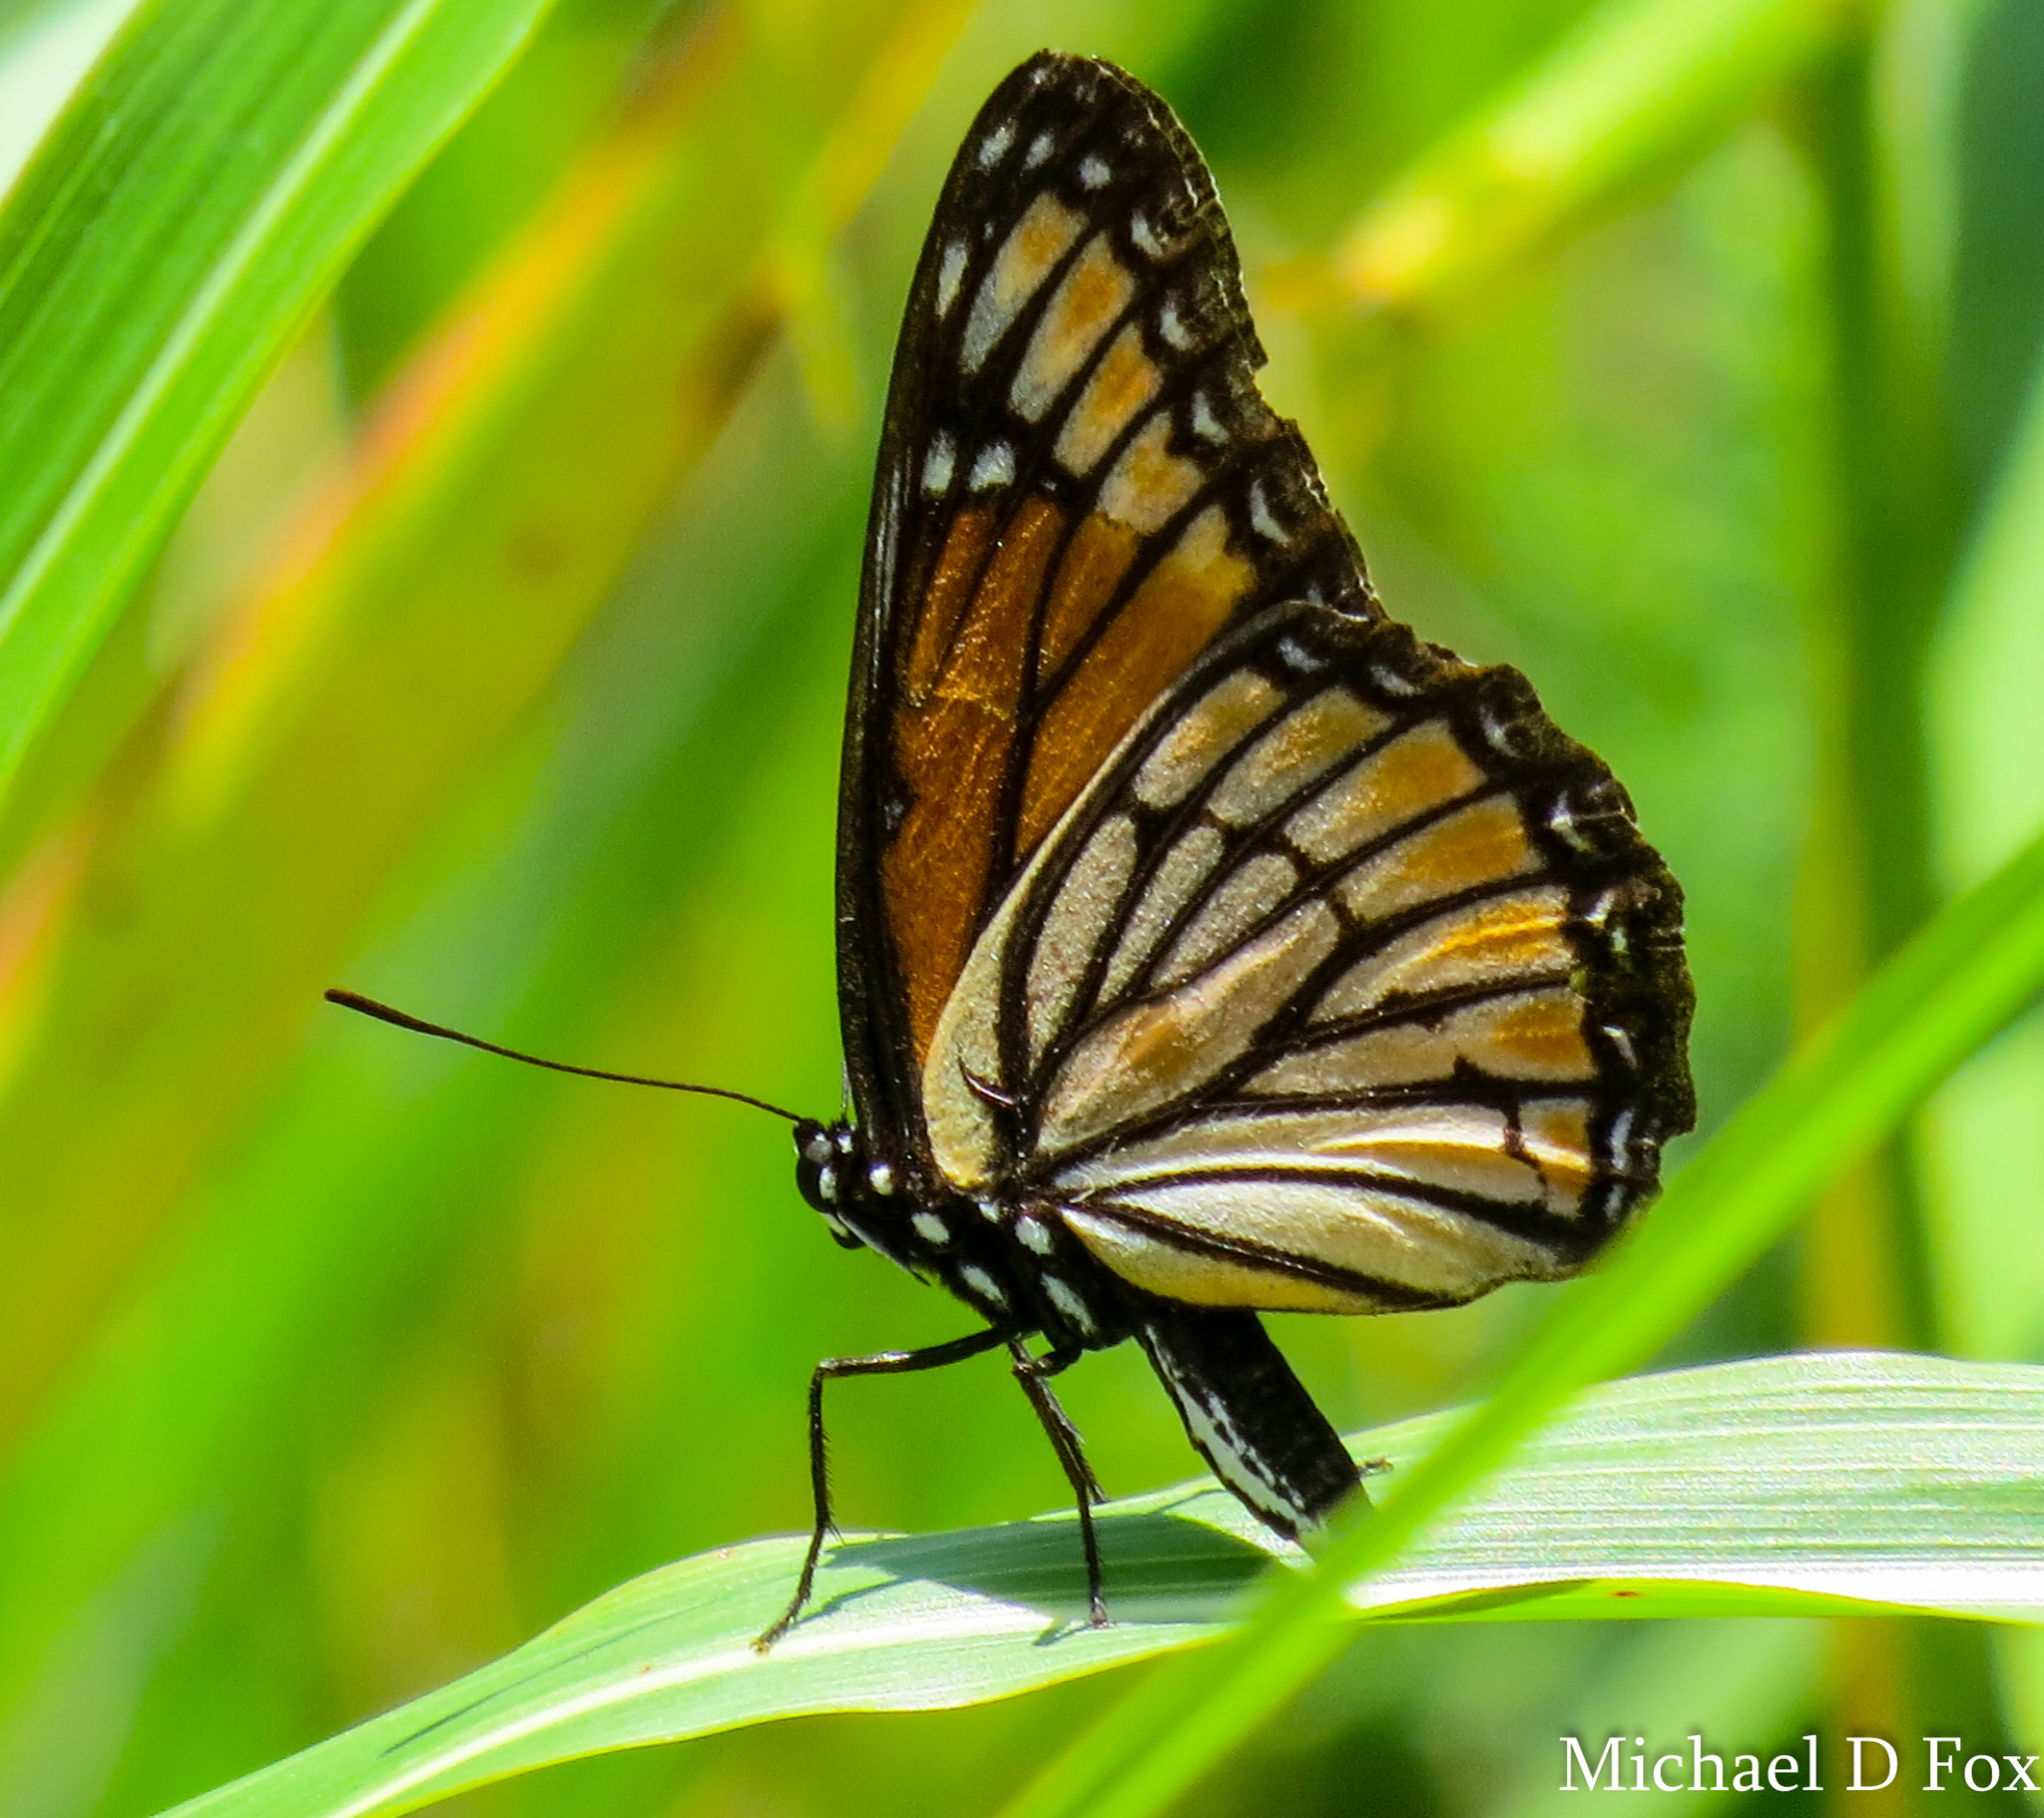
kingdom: Animalia
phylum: Arthropoda
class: Insecta
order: Lepidoptera
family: Nymphalidae
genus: Limenitis
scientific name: Limenitis archippus
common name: Viceroy
